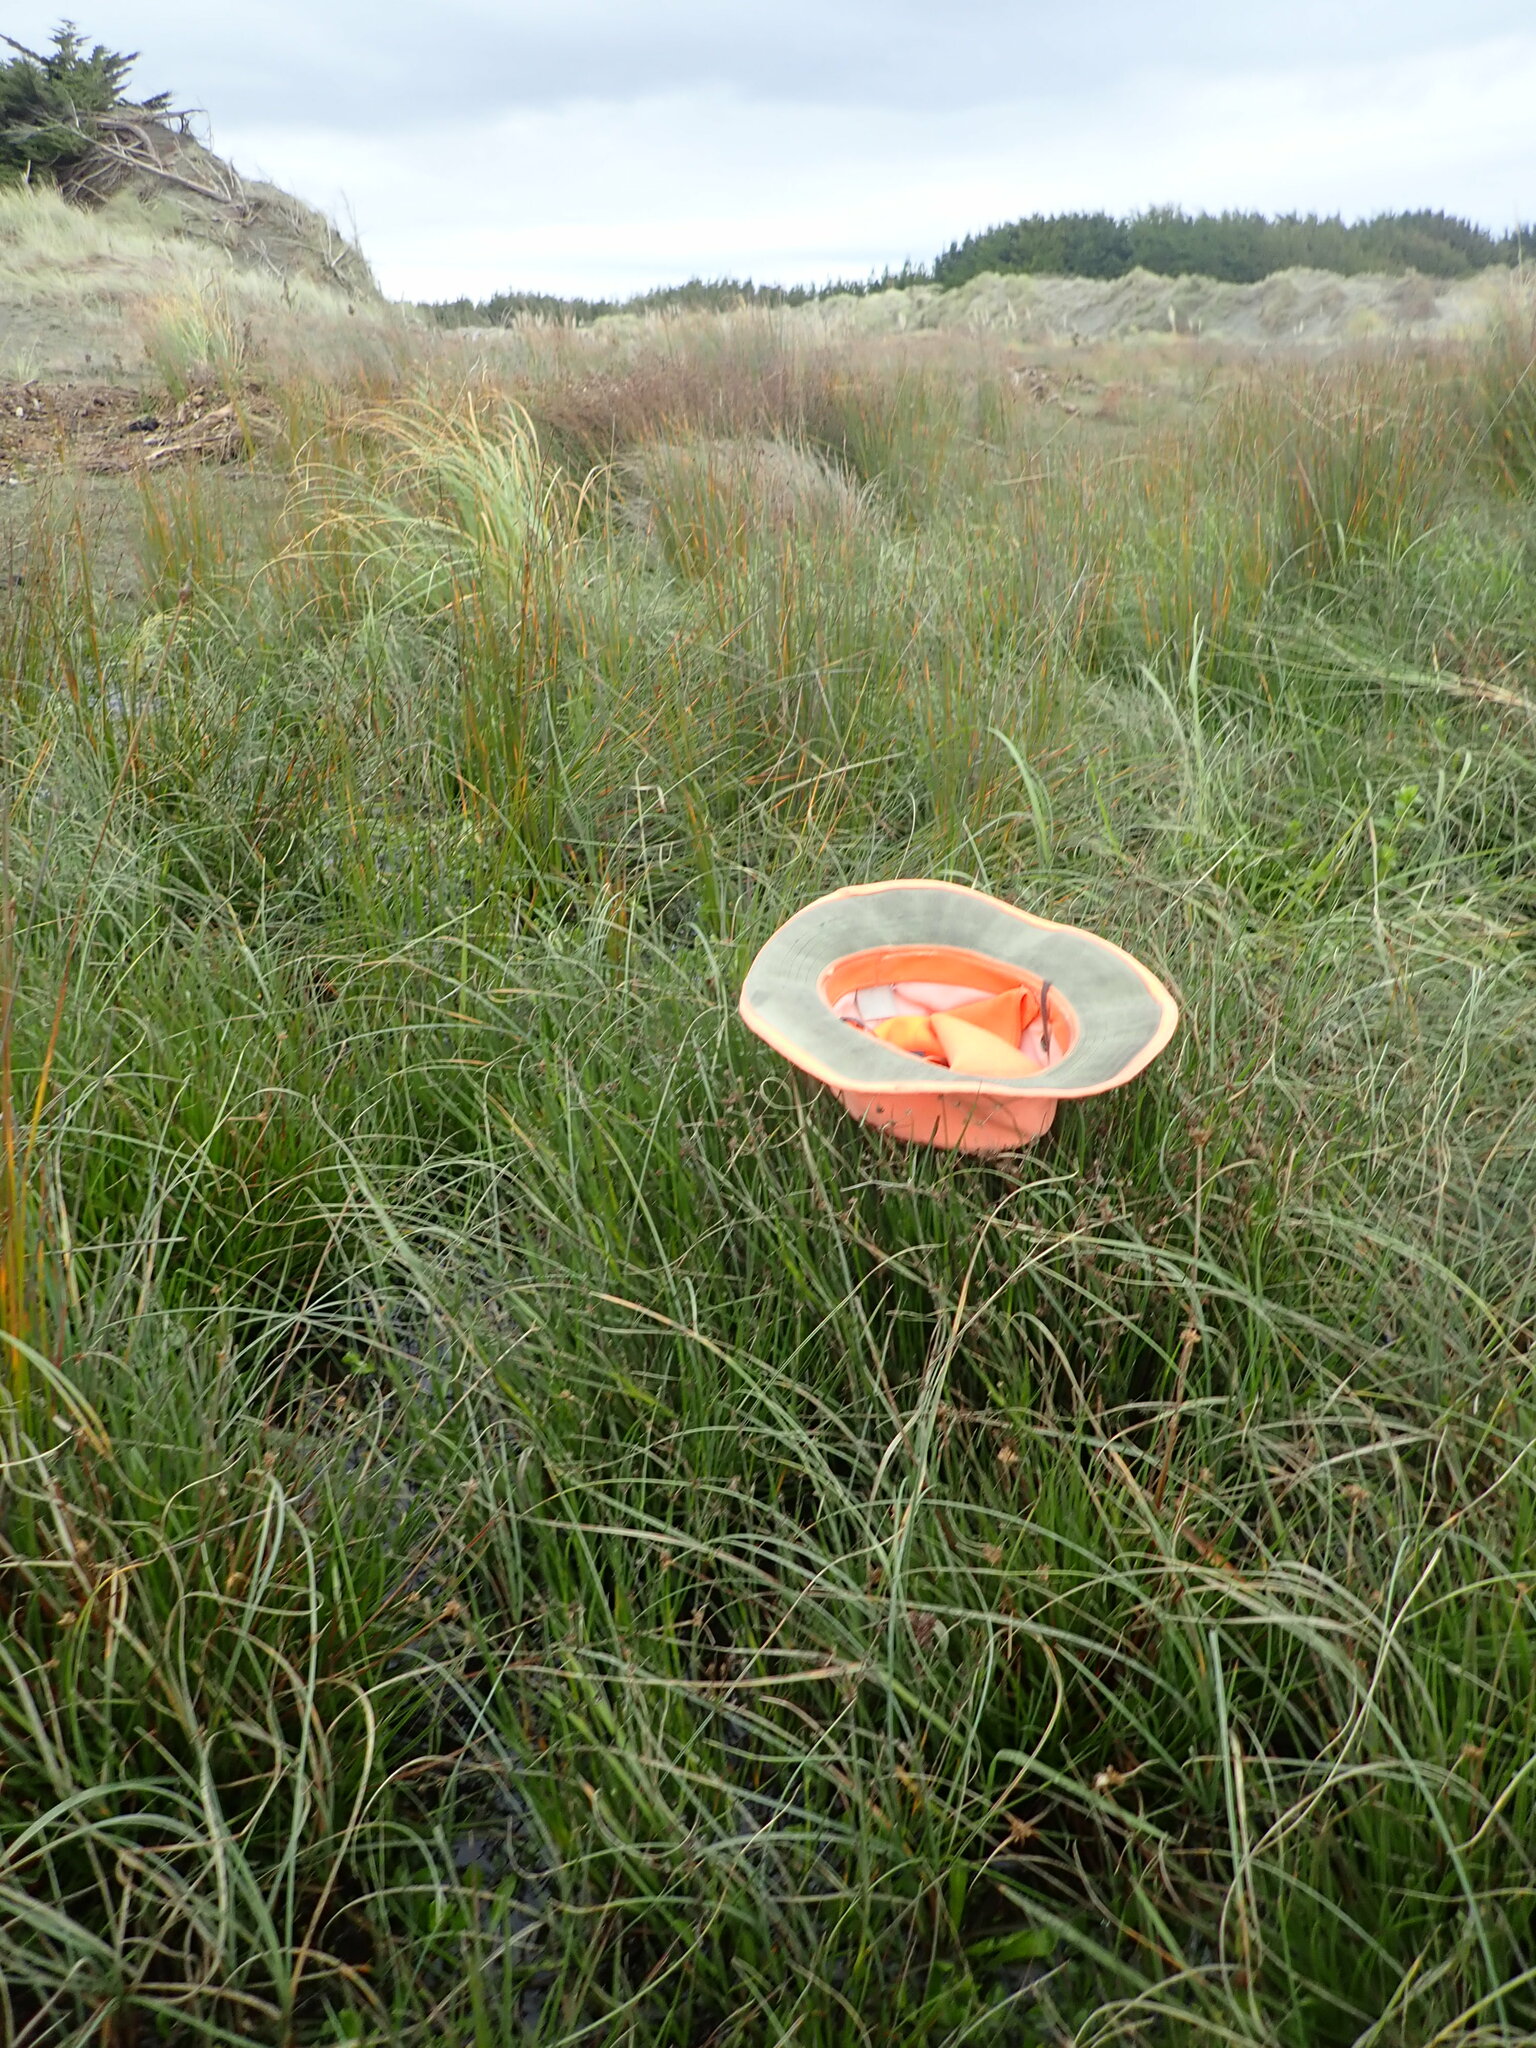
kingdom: Plantae
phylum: Tracheophyta
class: Liliopsida
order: Poales
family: Juncaceae
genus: Juncus
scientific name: Juncus articulatus
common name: Jointed rush
